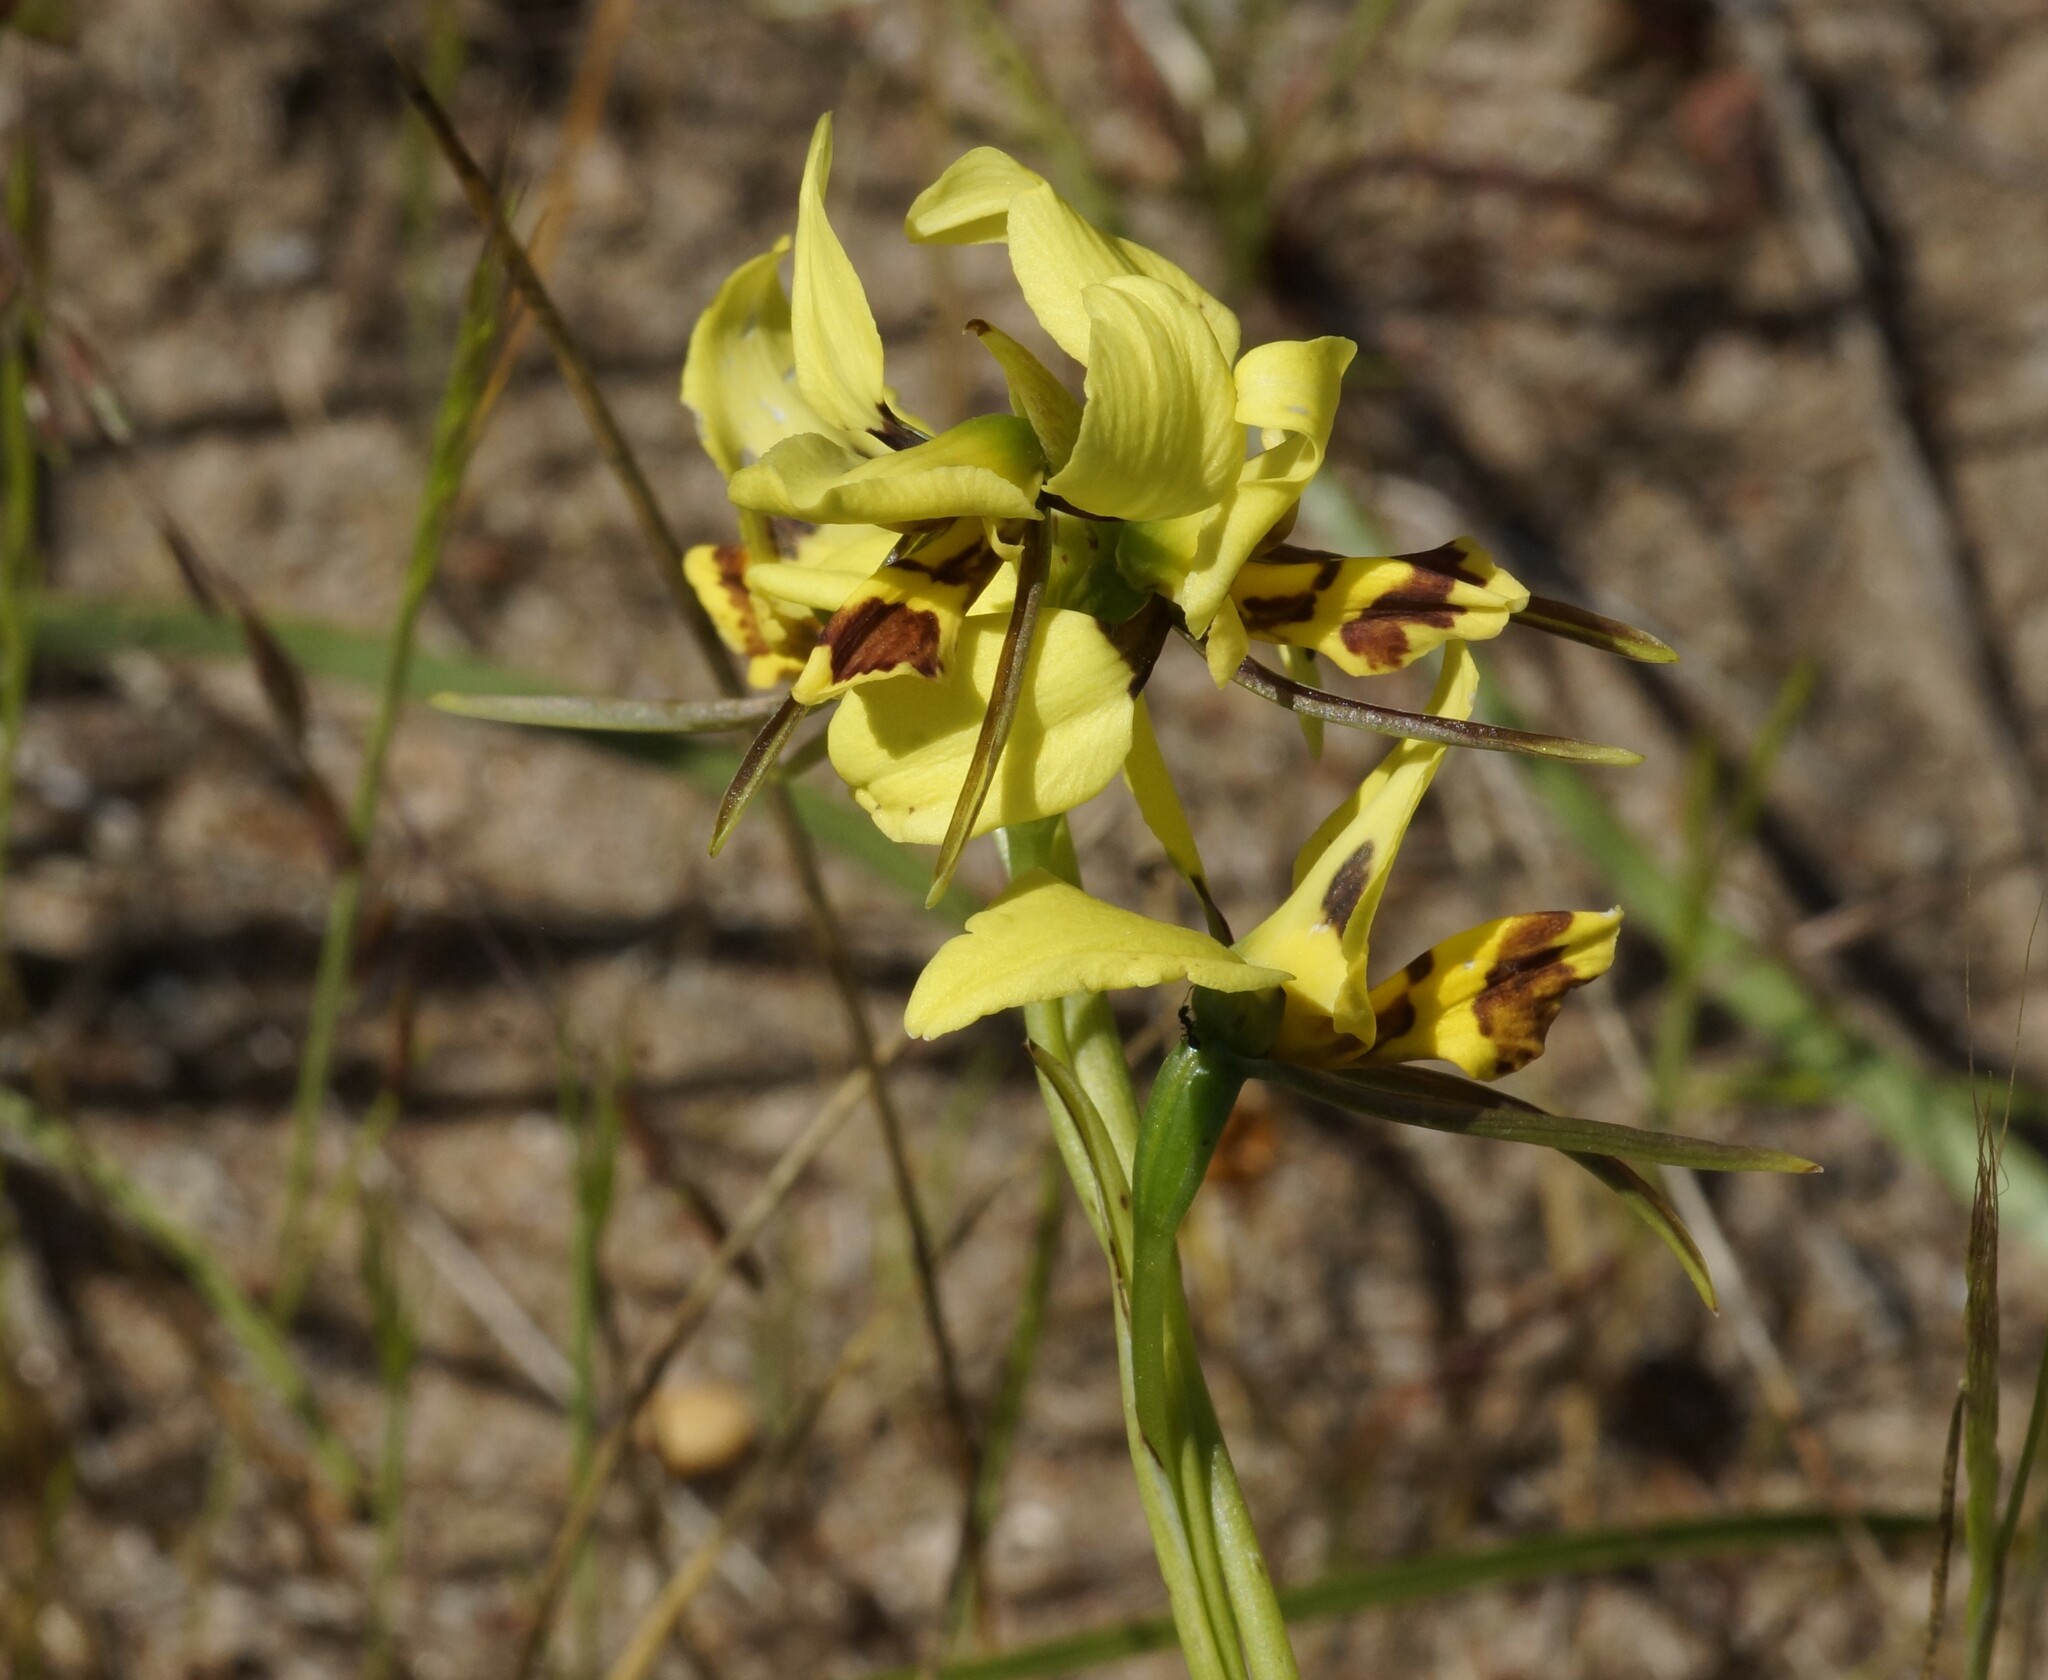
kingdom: Plantae
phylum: Tracheophyta
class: Liliopsida
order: Asparagales
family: Orchidaceae
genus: Diuris
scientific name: Diuris sulphurea
